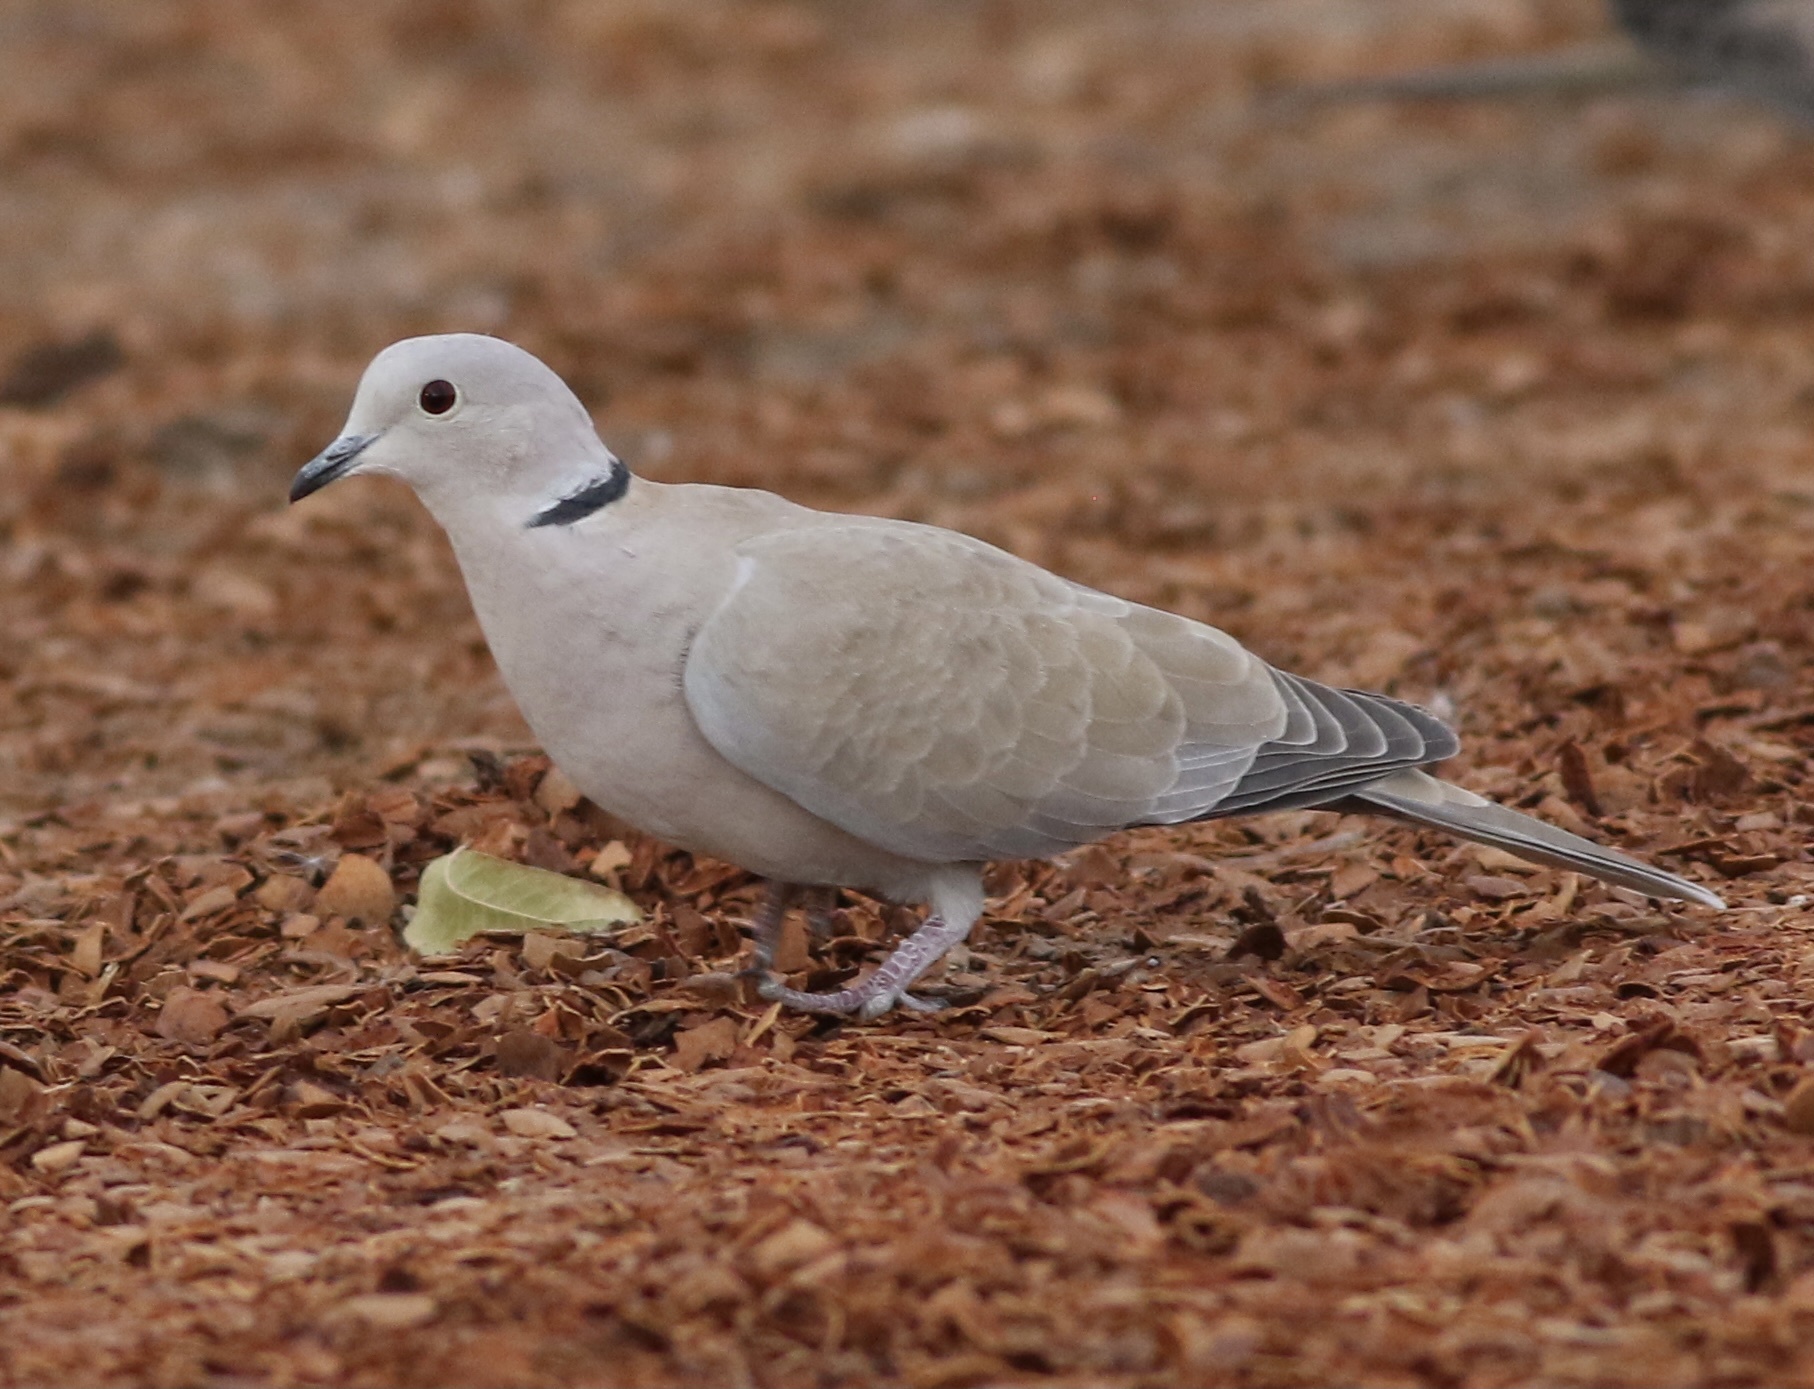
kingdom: Animalia
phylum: Chordata
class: Aves
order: Columbiformes
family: Columbidae
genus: Streptopelia
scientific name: Streptopelia decaocto
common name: Eurasian collared dove
